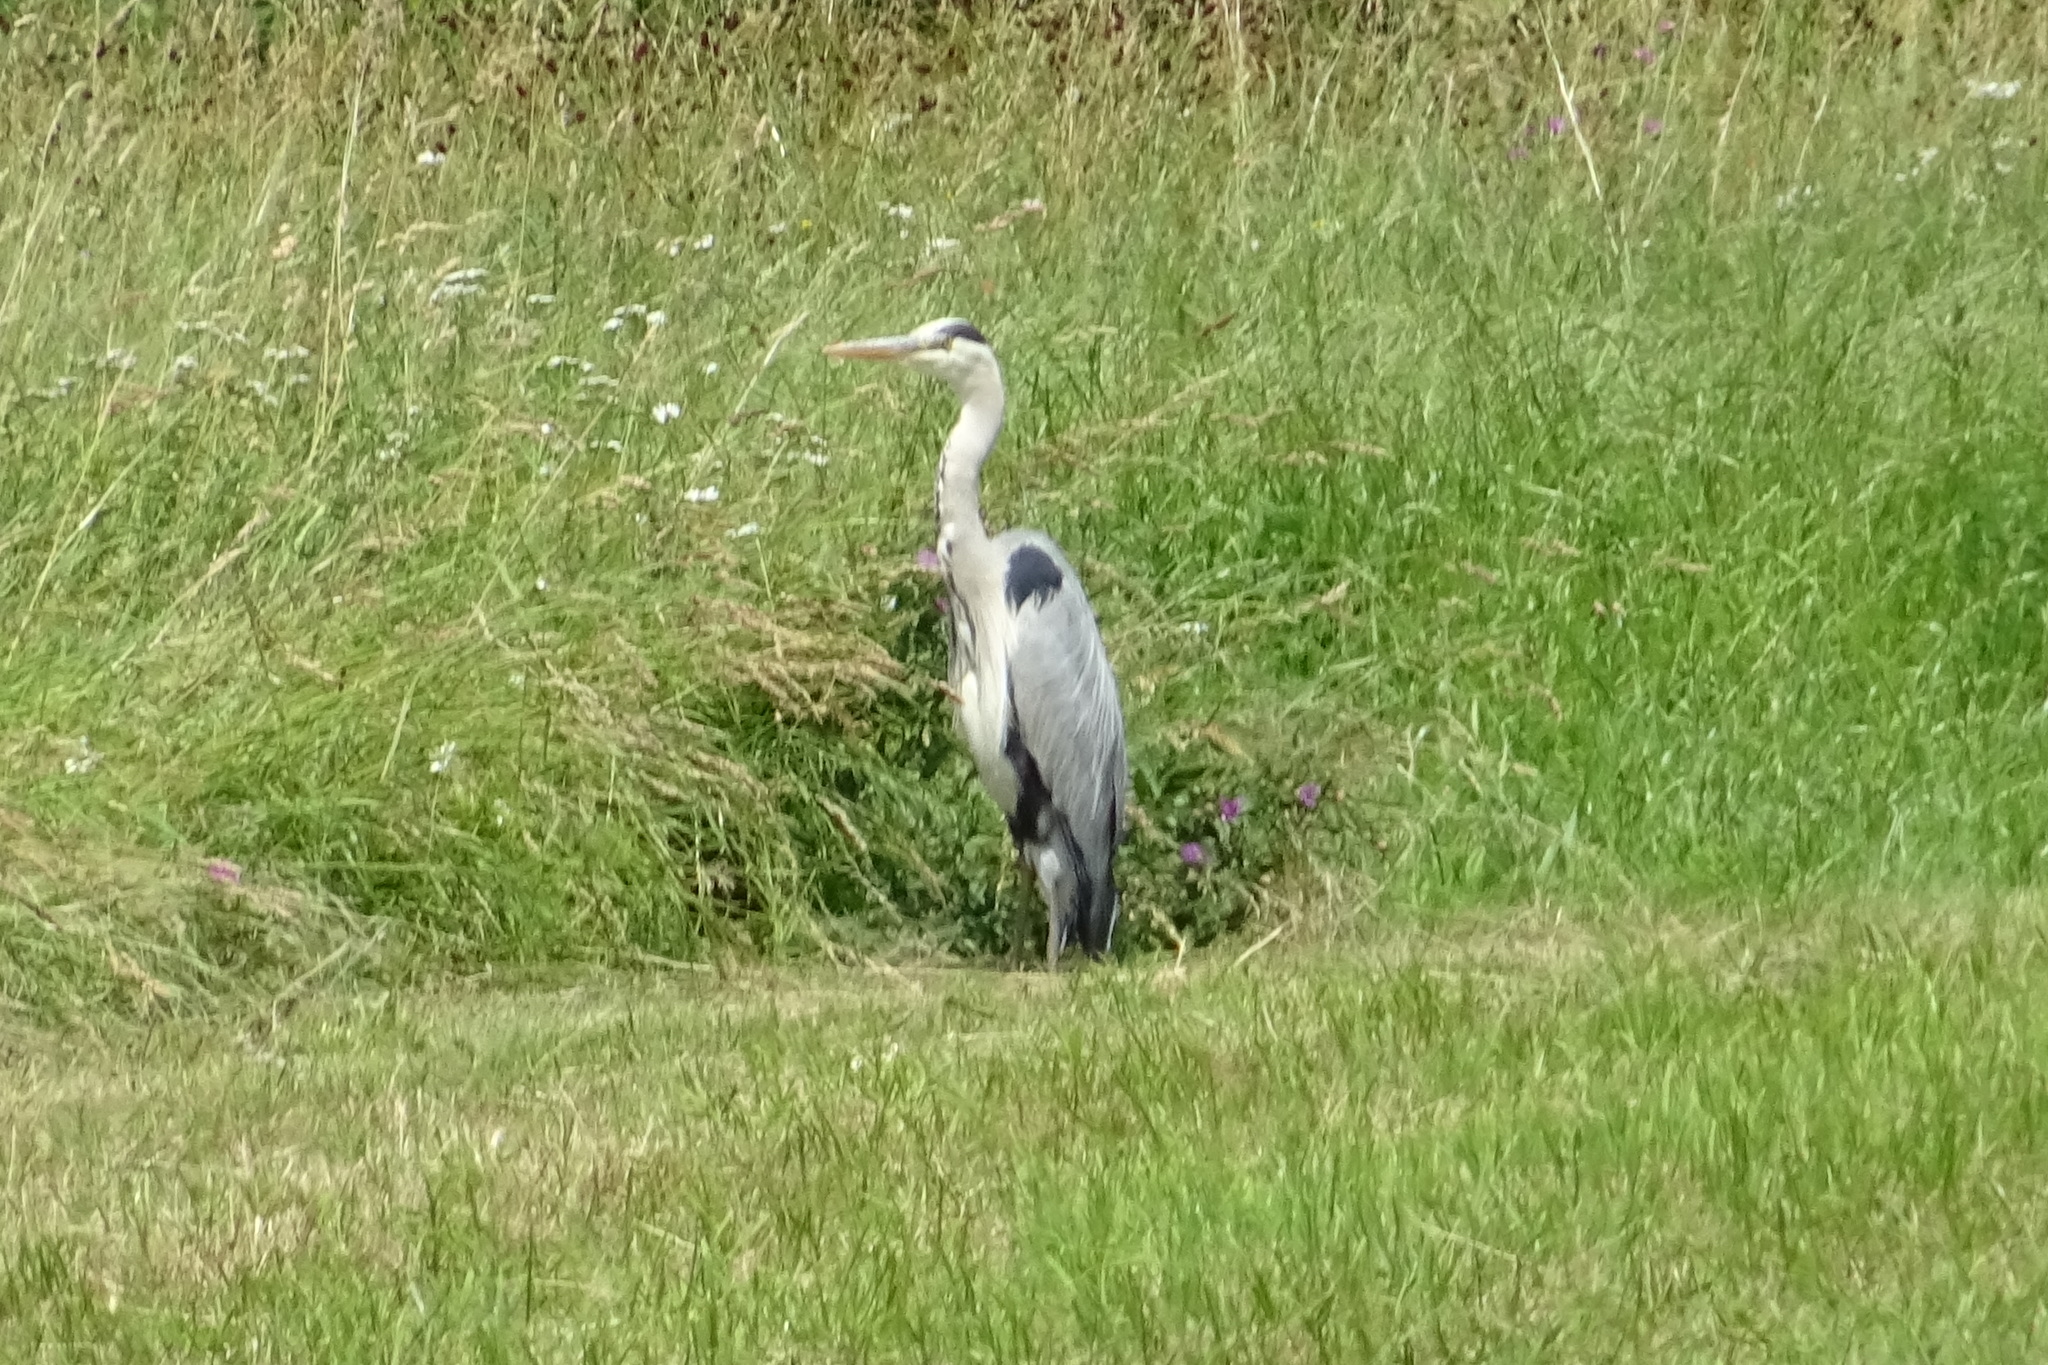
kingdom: Animalia
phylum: Chordata
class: Aves
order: Pelecaniformes
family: Ardeidae
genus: Ardea
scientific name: Ardea cinerea
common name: Grey heron
